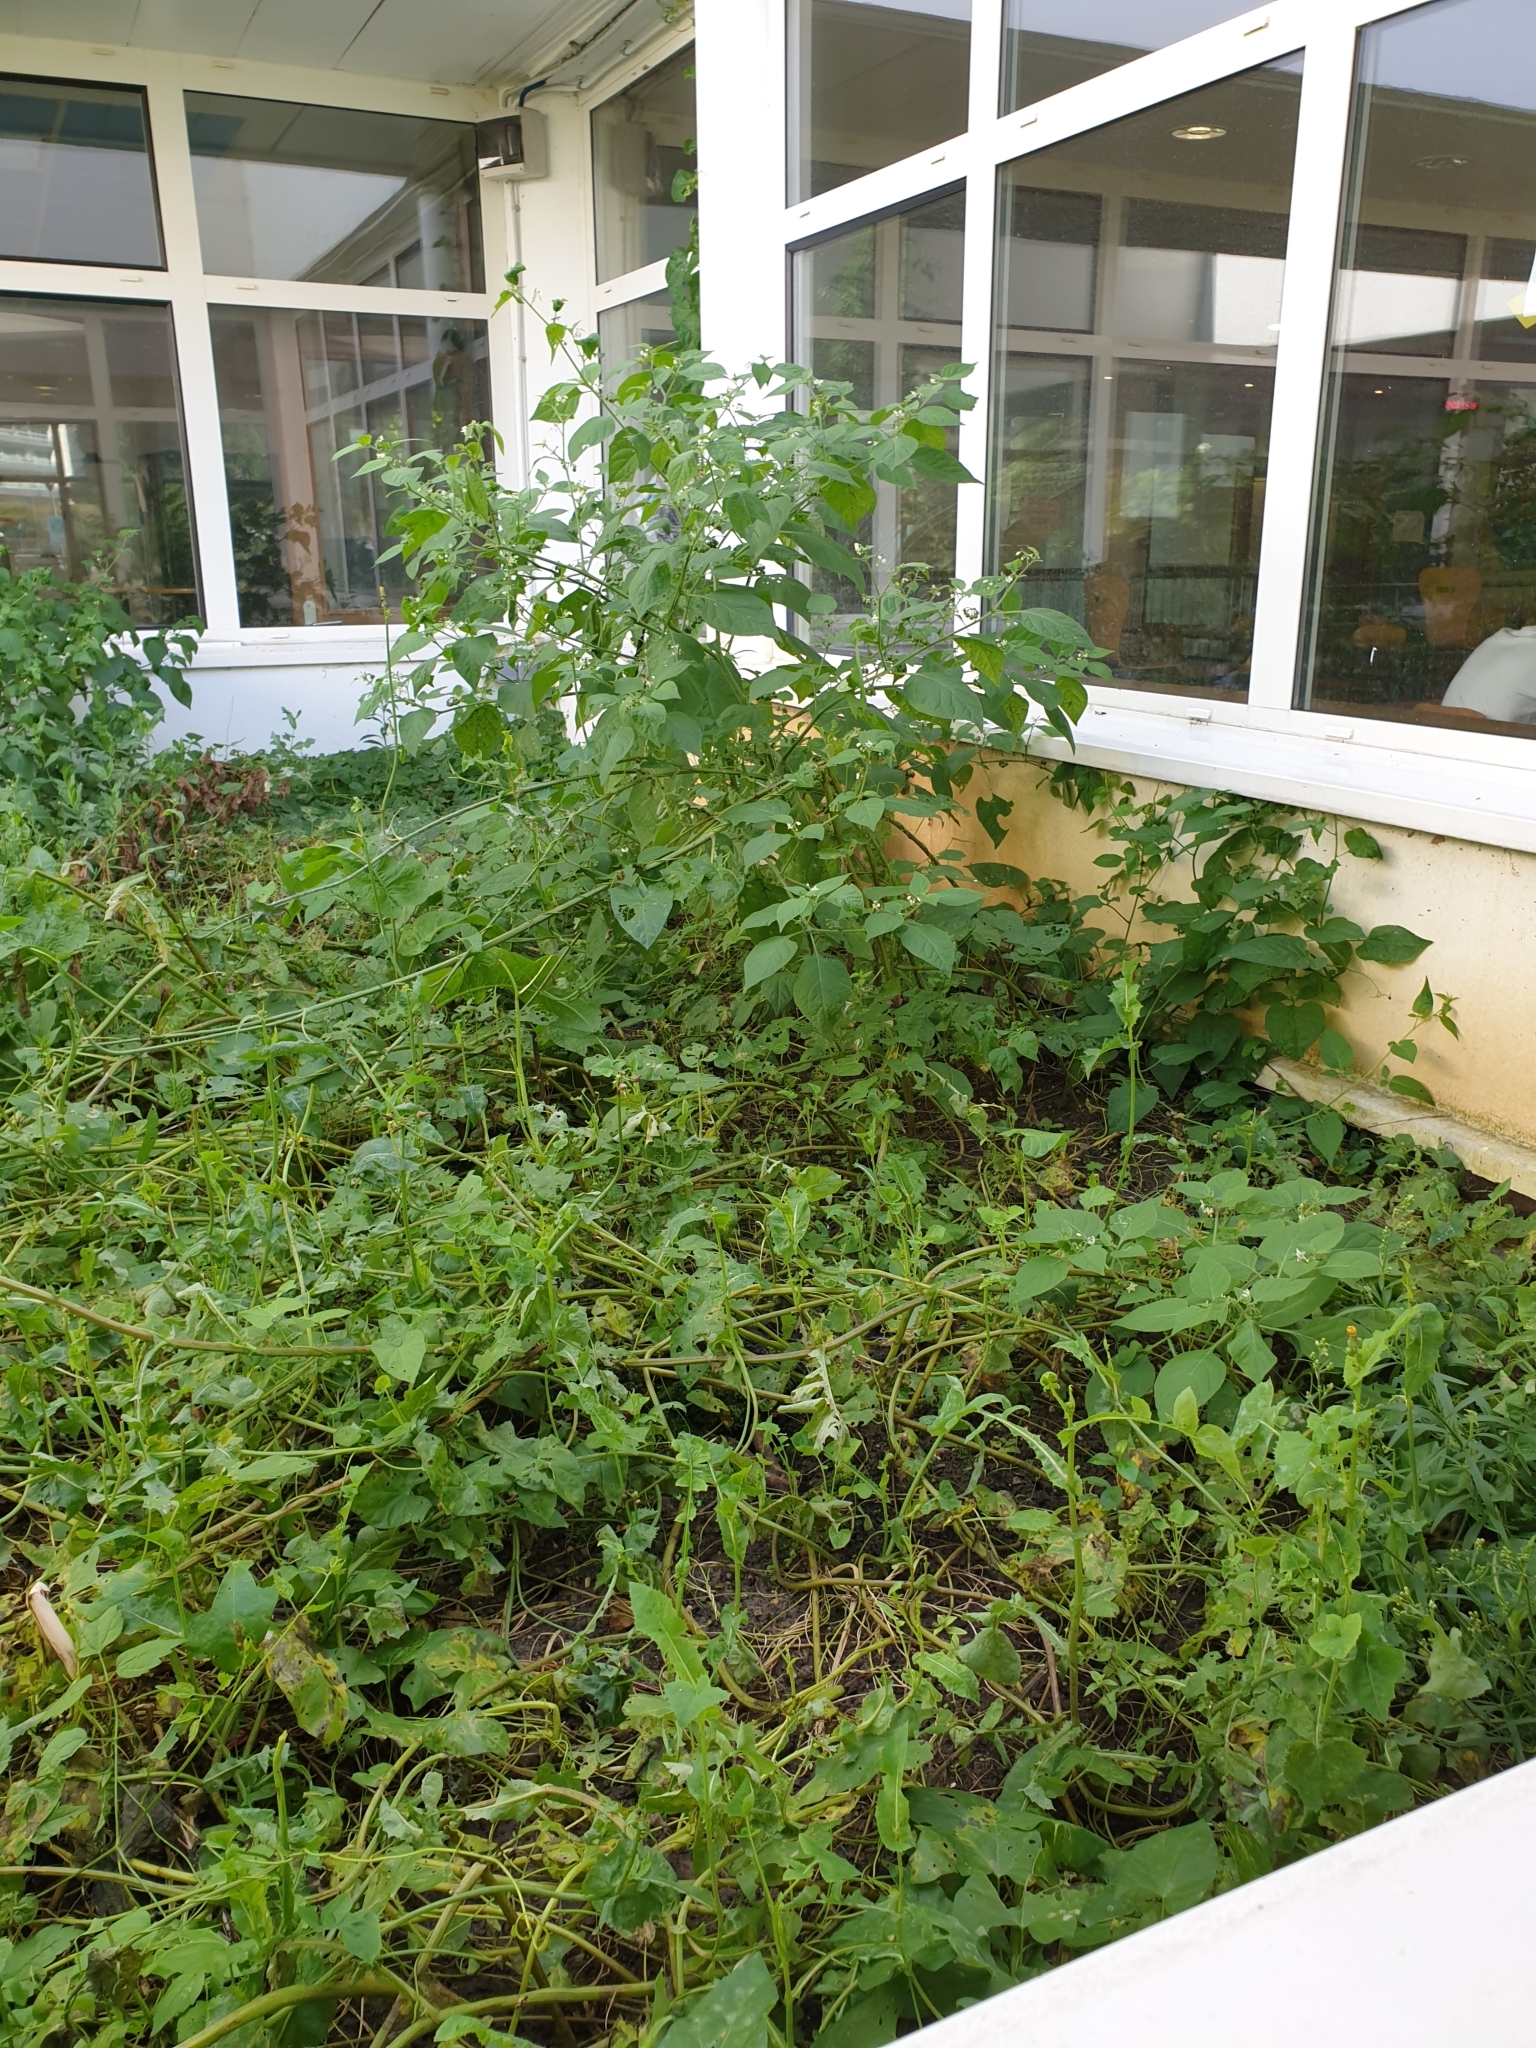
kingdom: Plantae
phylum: Tracheophyta
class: Magnoliopsida
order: Solanales
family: Solanaceae
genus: Solanum
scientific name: Solanum nigrum
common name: Black nightshade
